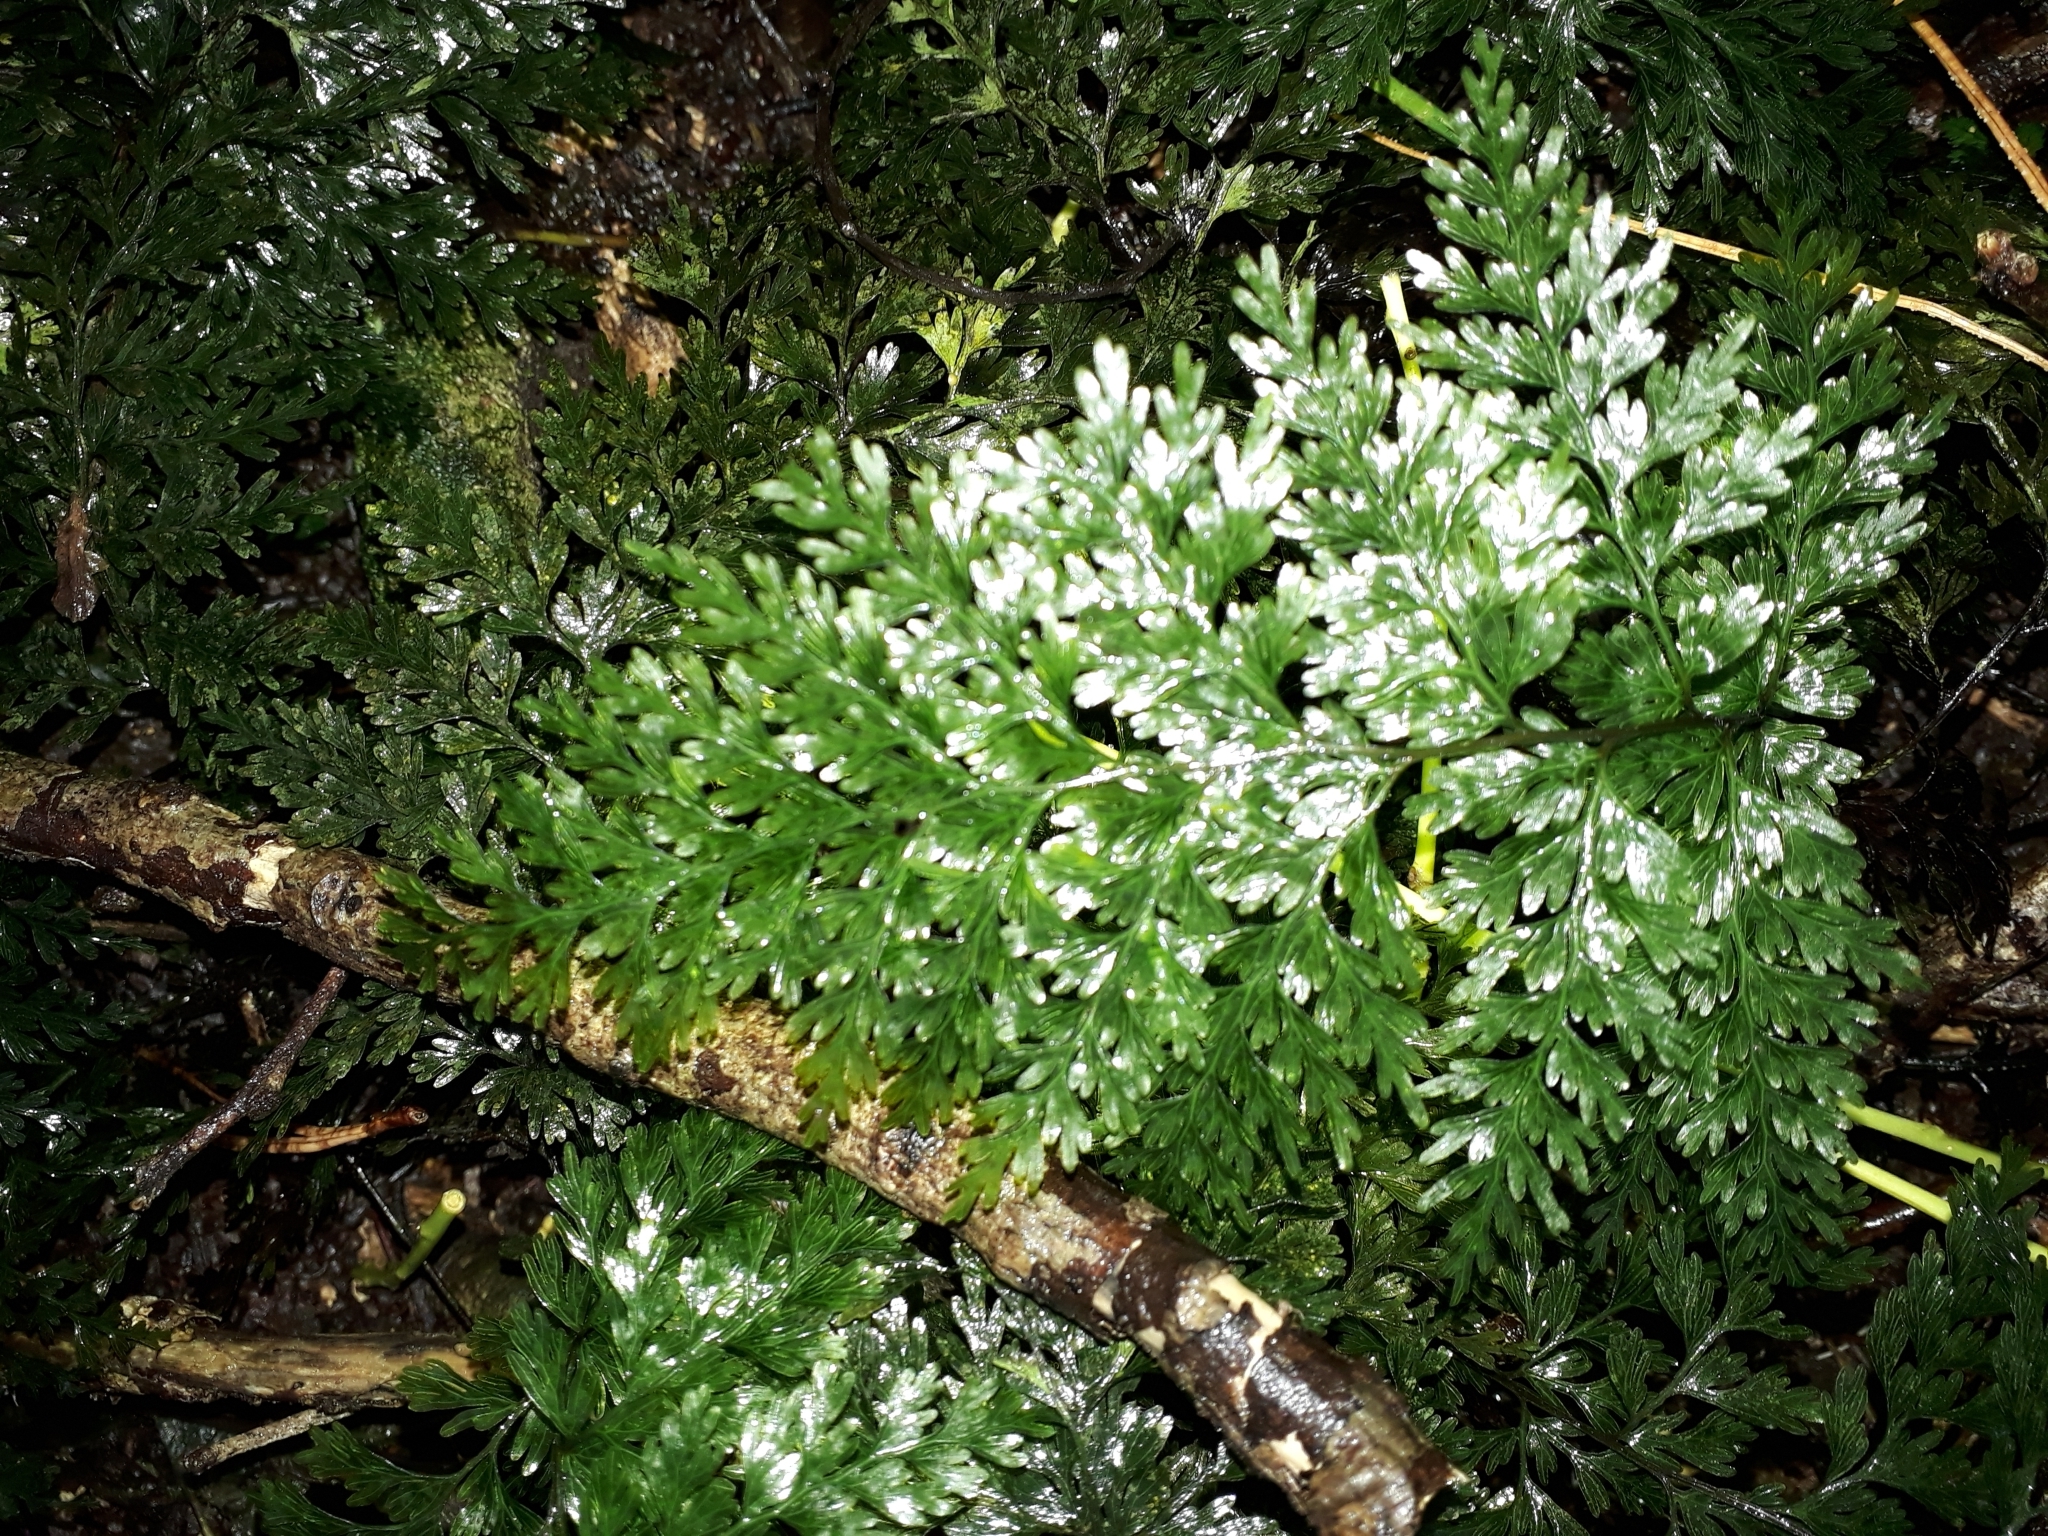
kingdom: Plantae
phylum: Tracheophyta
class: Polypodiopsida
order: Hymenophyllales
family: Hymenophyllaceae
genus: Hymenophyllum
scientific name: Hymenophyllum demissum
